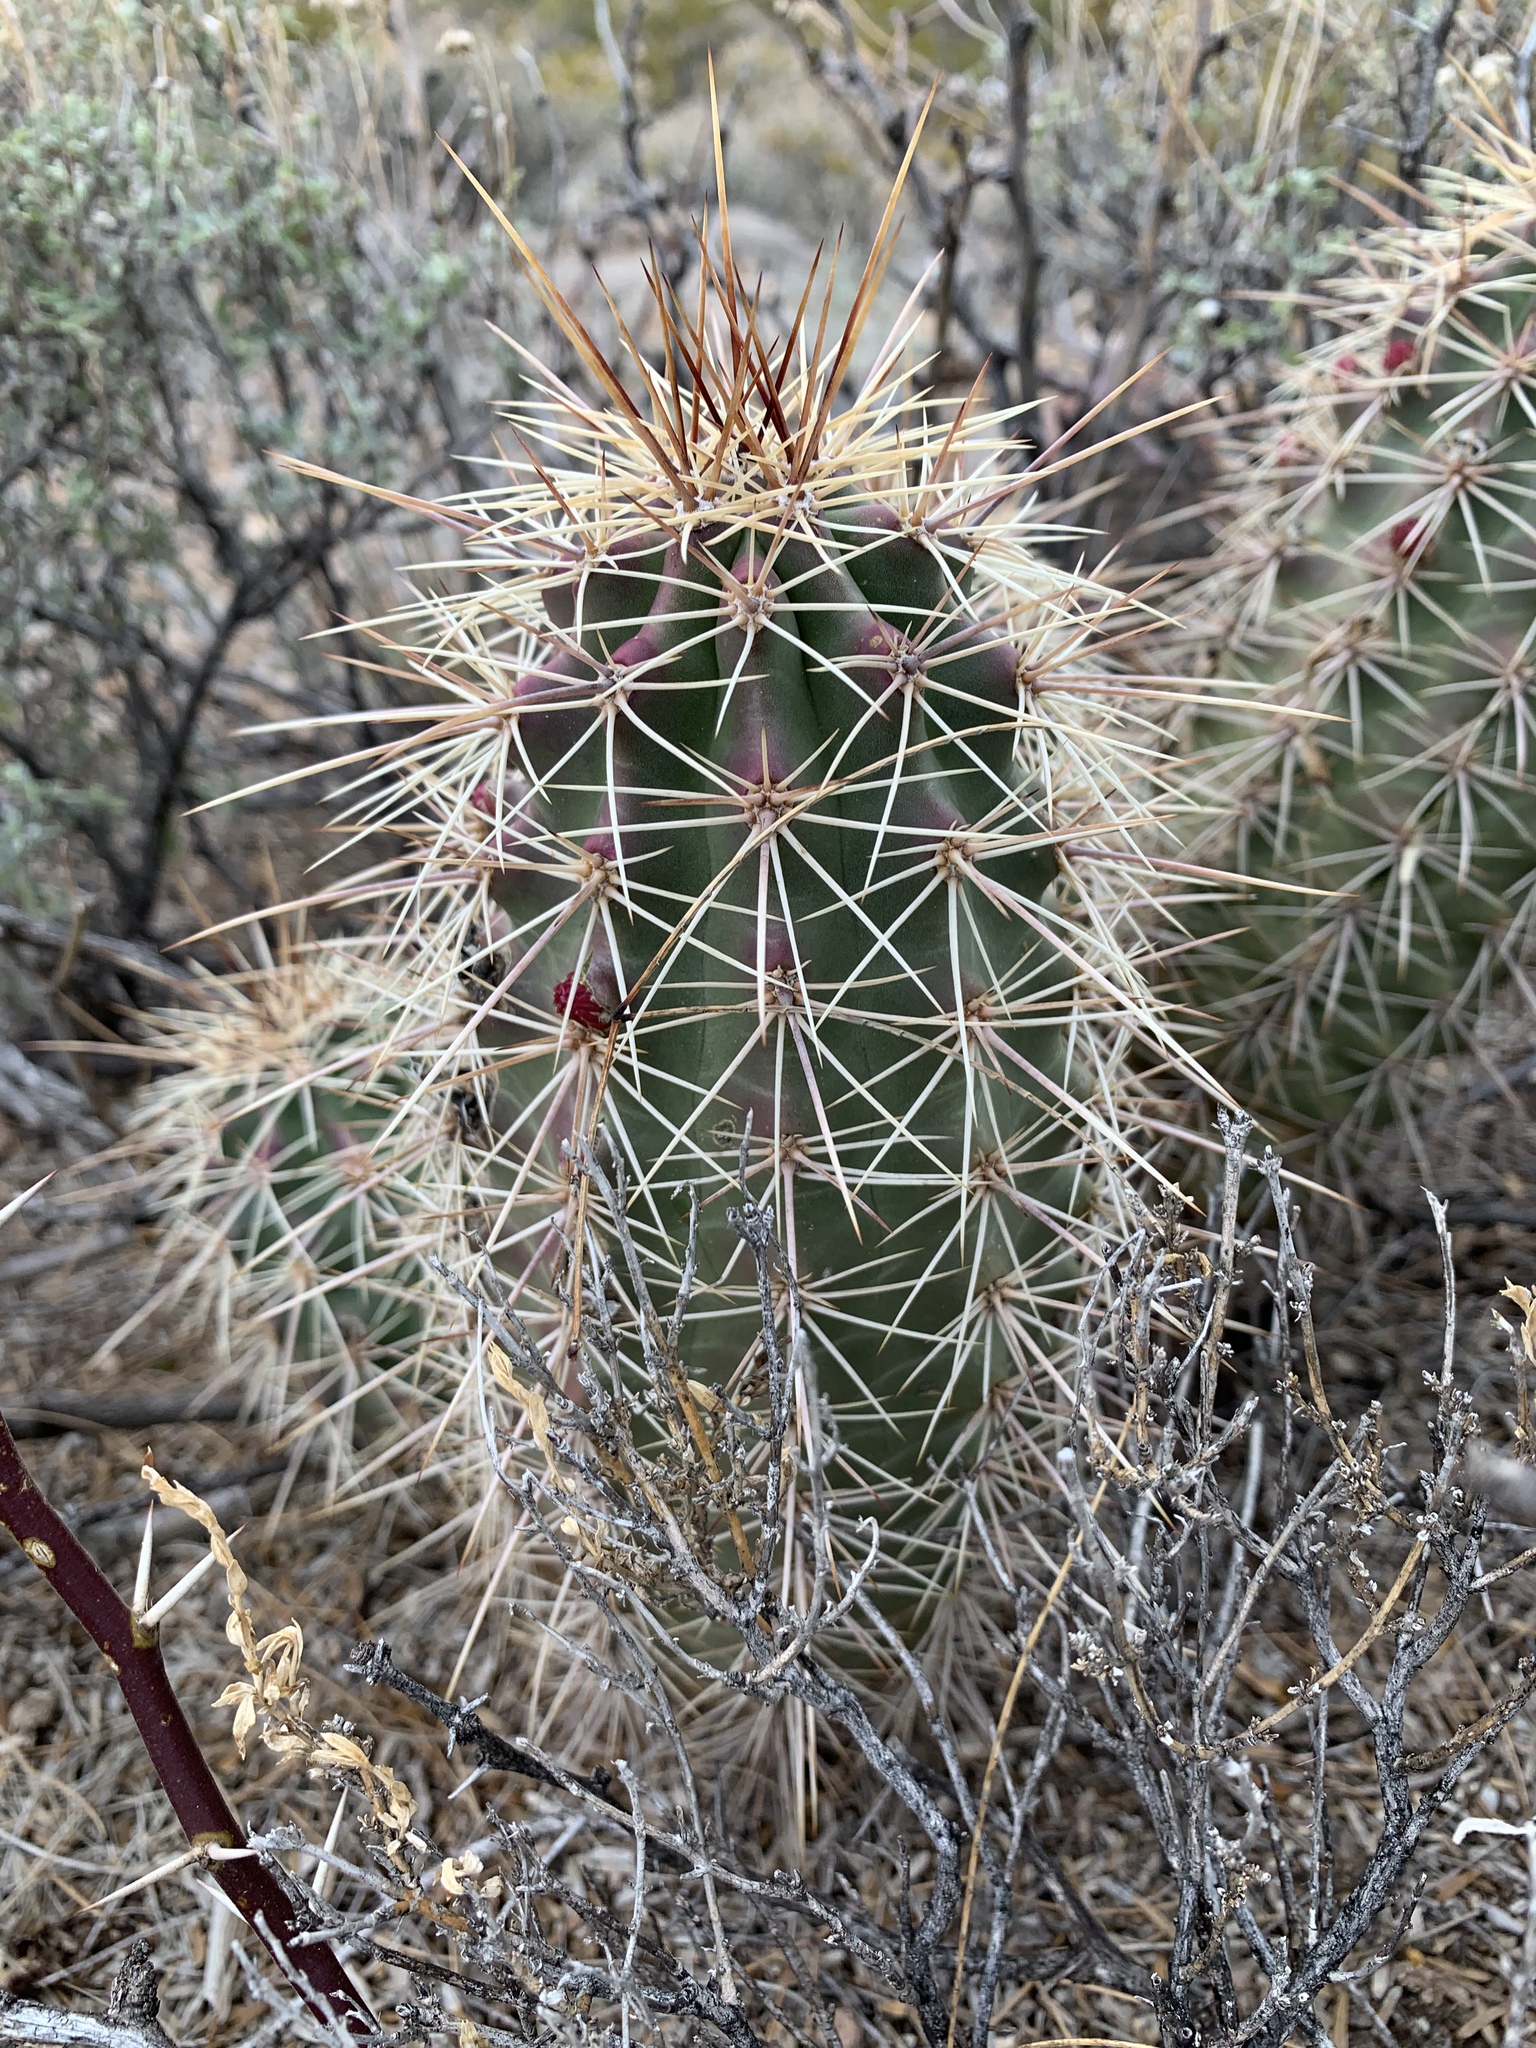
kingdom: Plantae
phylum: Tracheophyta
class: Magnoliopsida
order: Caryophyllales
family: Cactaceae
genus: Echinocereus
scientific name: Echinocereus coccineus
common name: Scarlet hedgehog cactus
